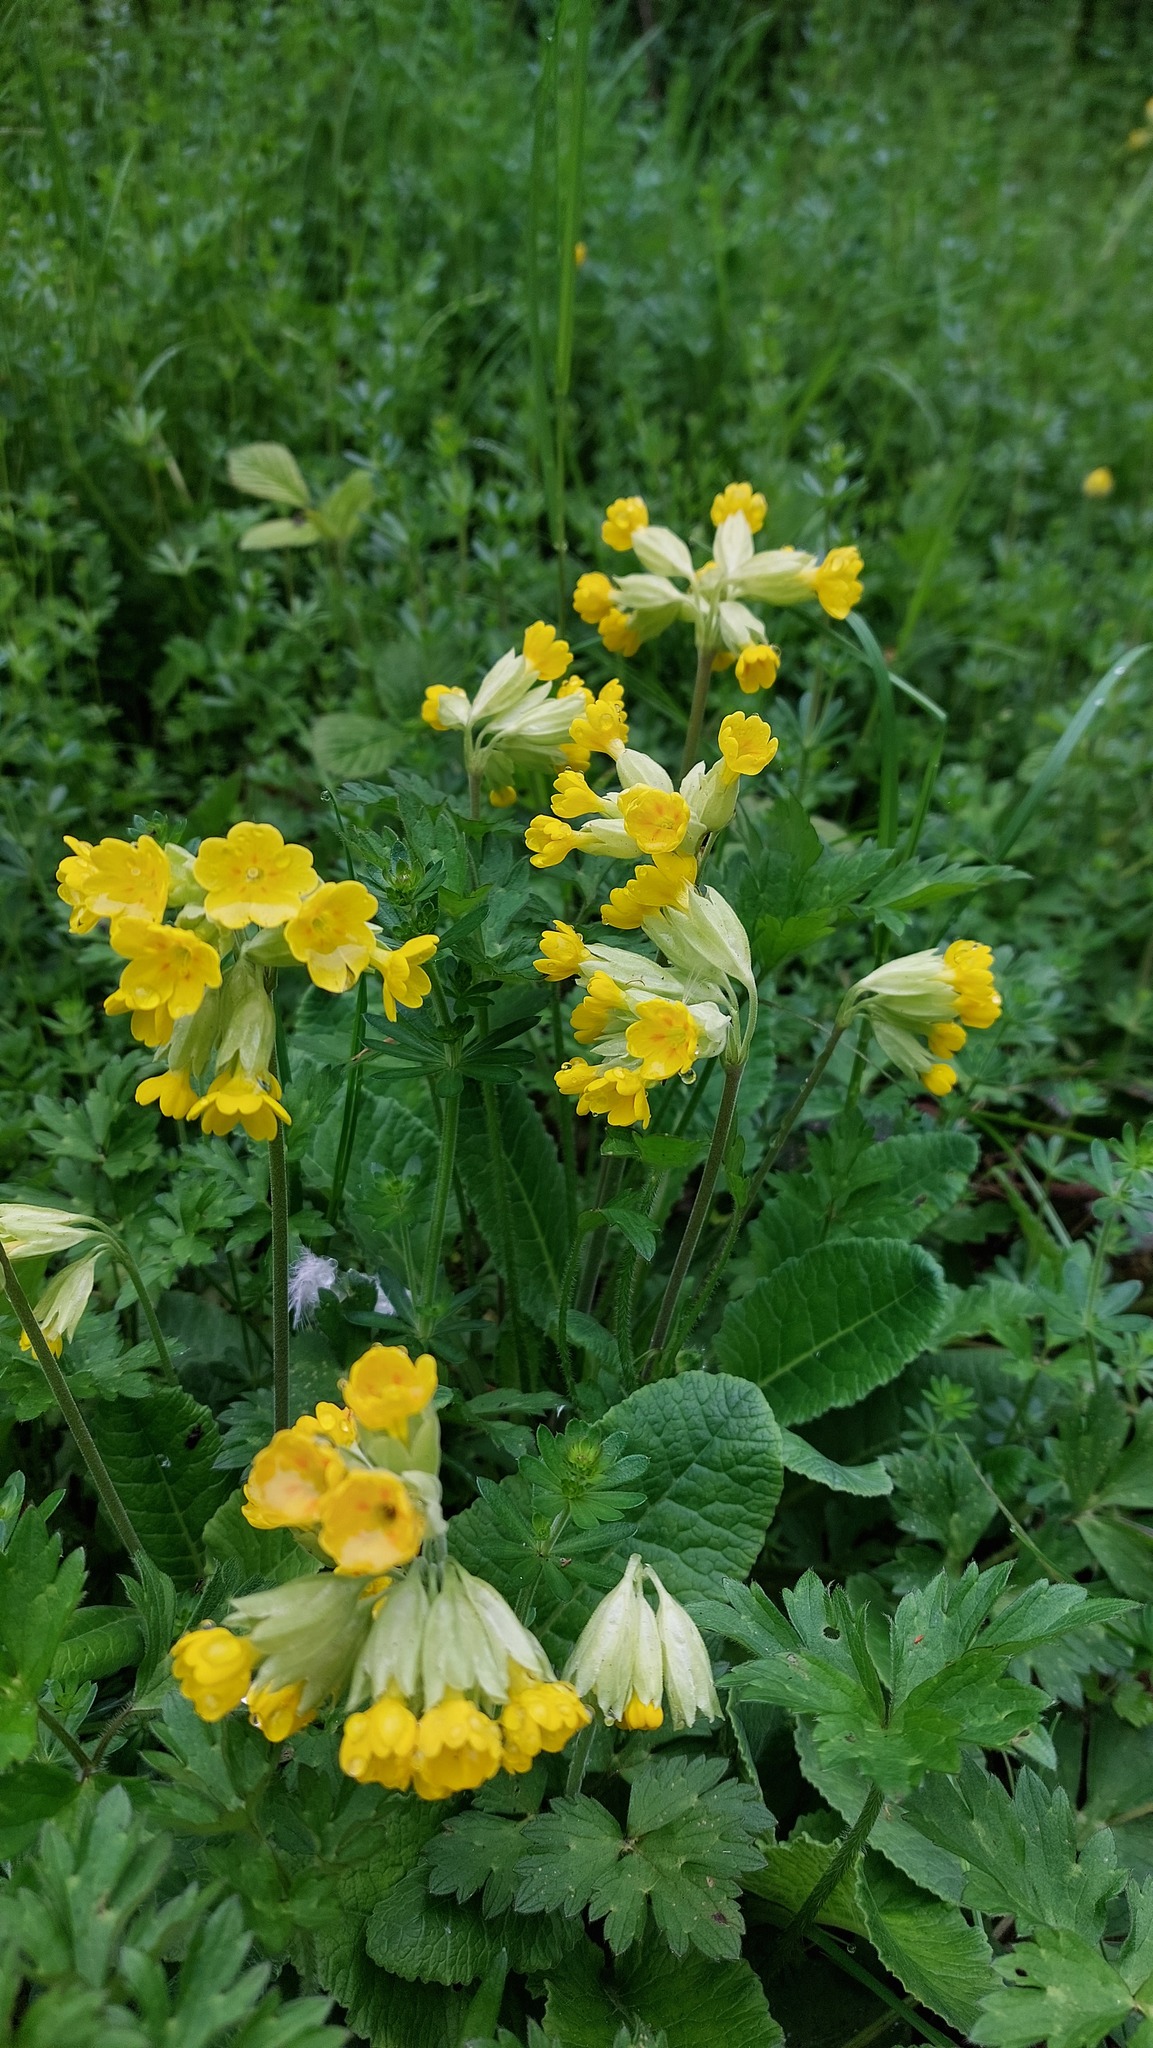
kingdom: Plantae
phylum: Tracheophyta
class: Magnoliopsida
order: Ericales
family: Primulaceae
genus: Primula
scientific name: Primula veris
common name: Cowslip
